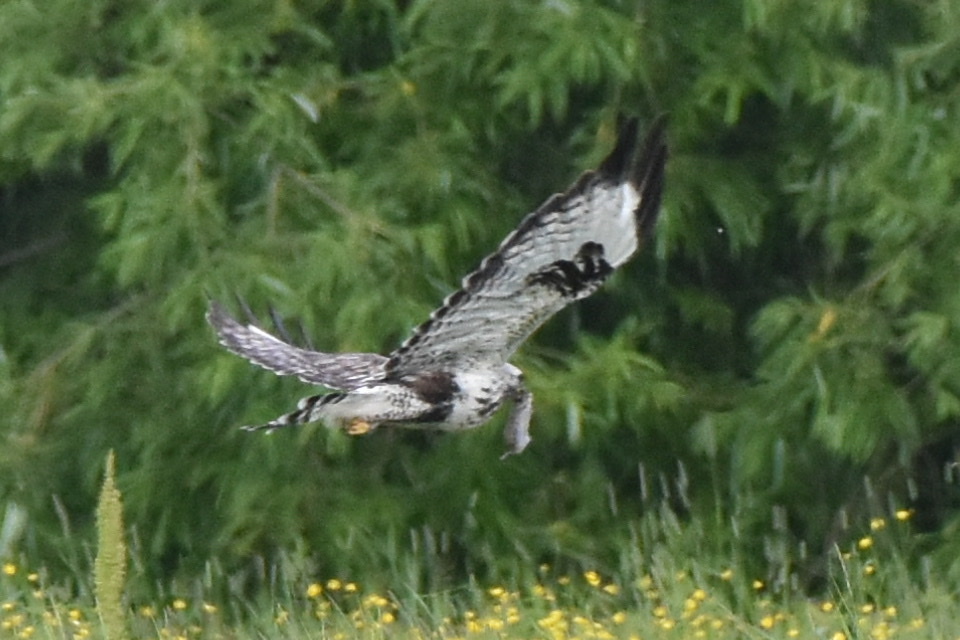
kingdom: Animalia
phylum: Chordata
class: Aves
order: Accipitriformes
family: Accipitridae
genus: Buteo
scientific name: Buteo lagopus
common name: Rough-legged buzzard
